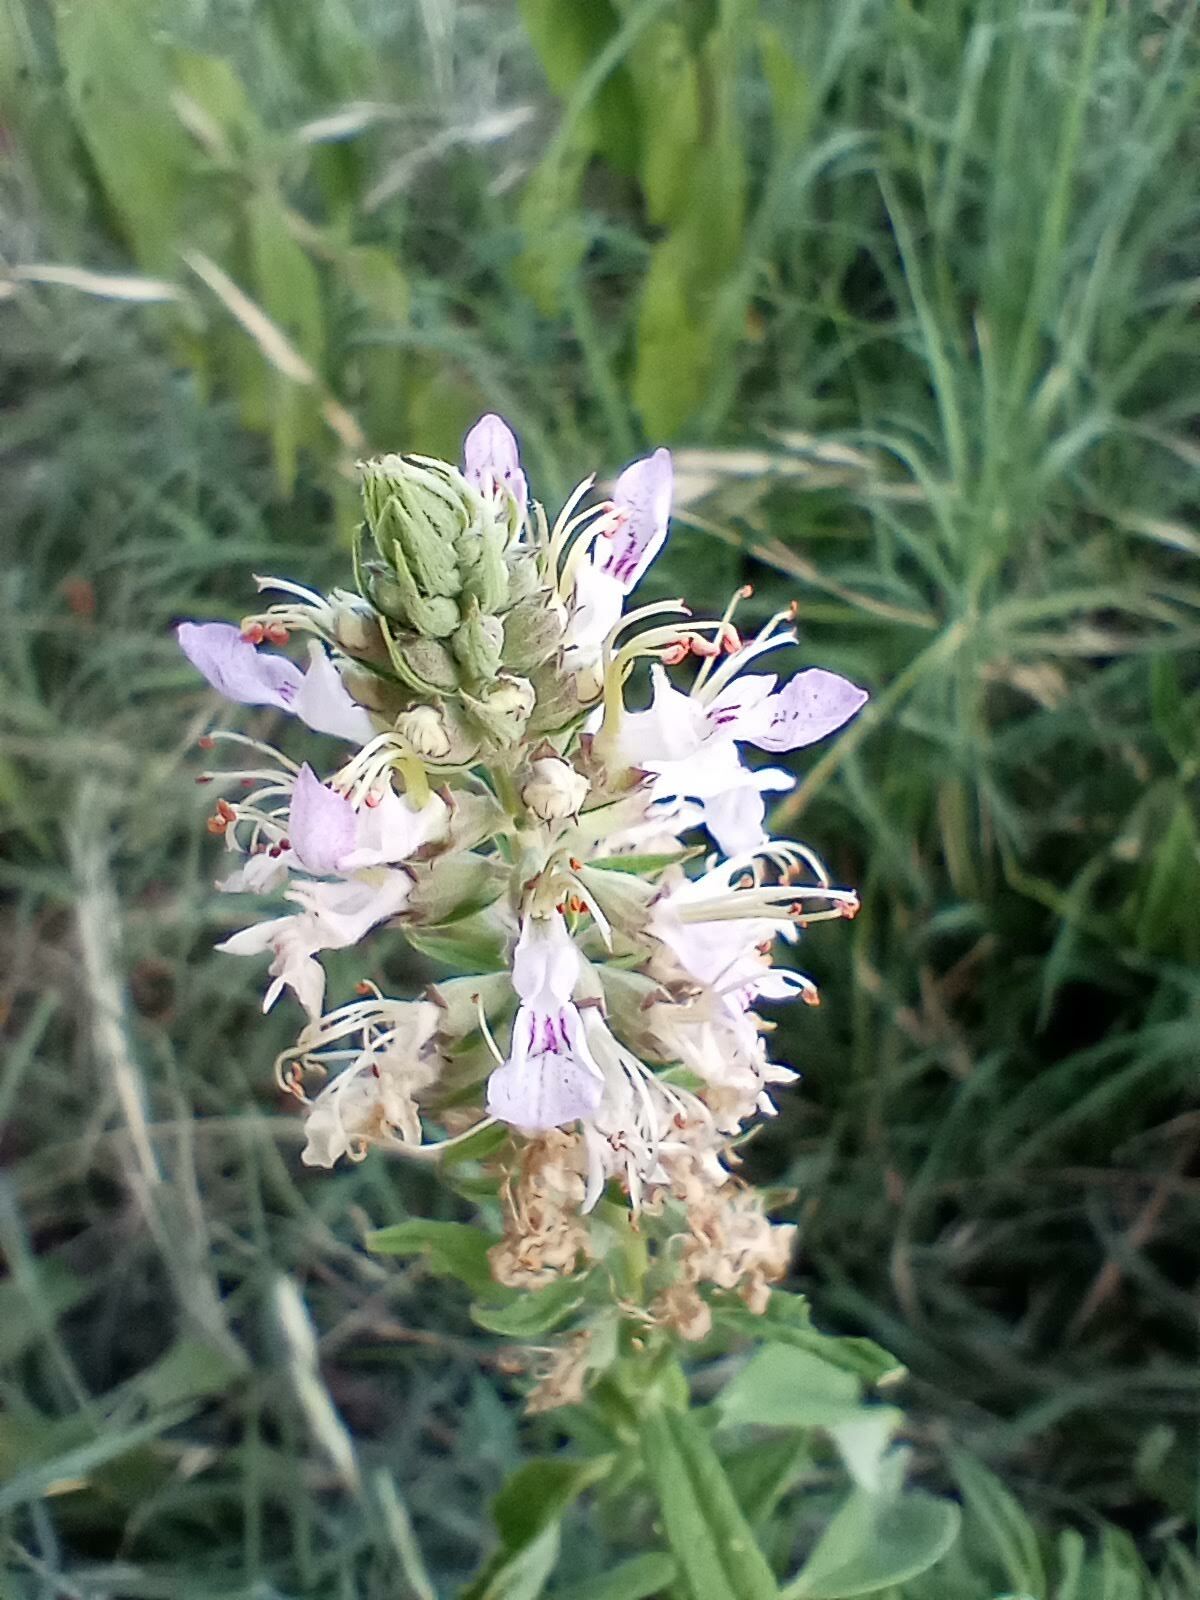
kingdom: Plantae
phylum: Tracheophyta
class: Magnoliopsida
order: Lamiales
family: Lamiaceae
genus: Teucrium
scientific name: Teucrium canadense
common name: American germander
